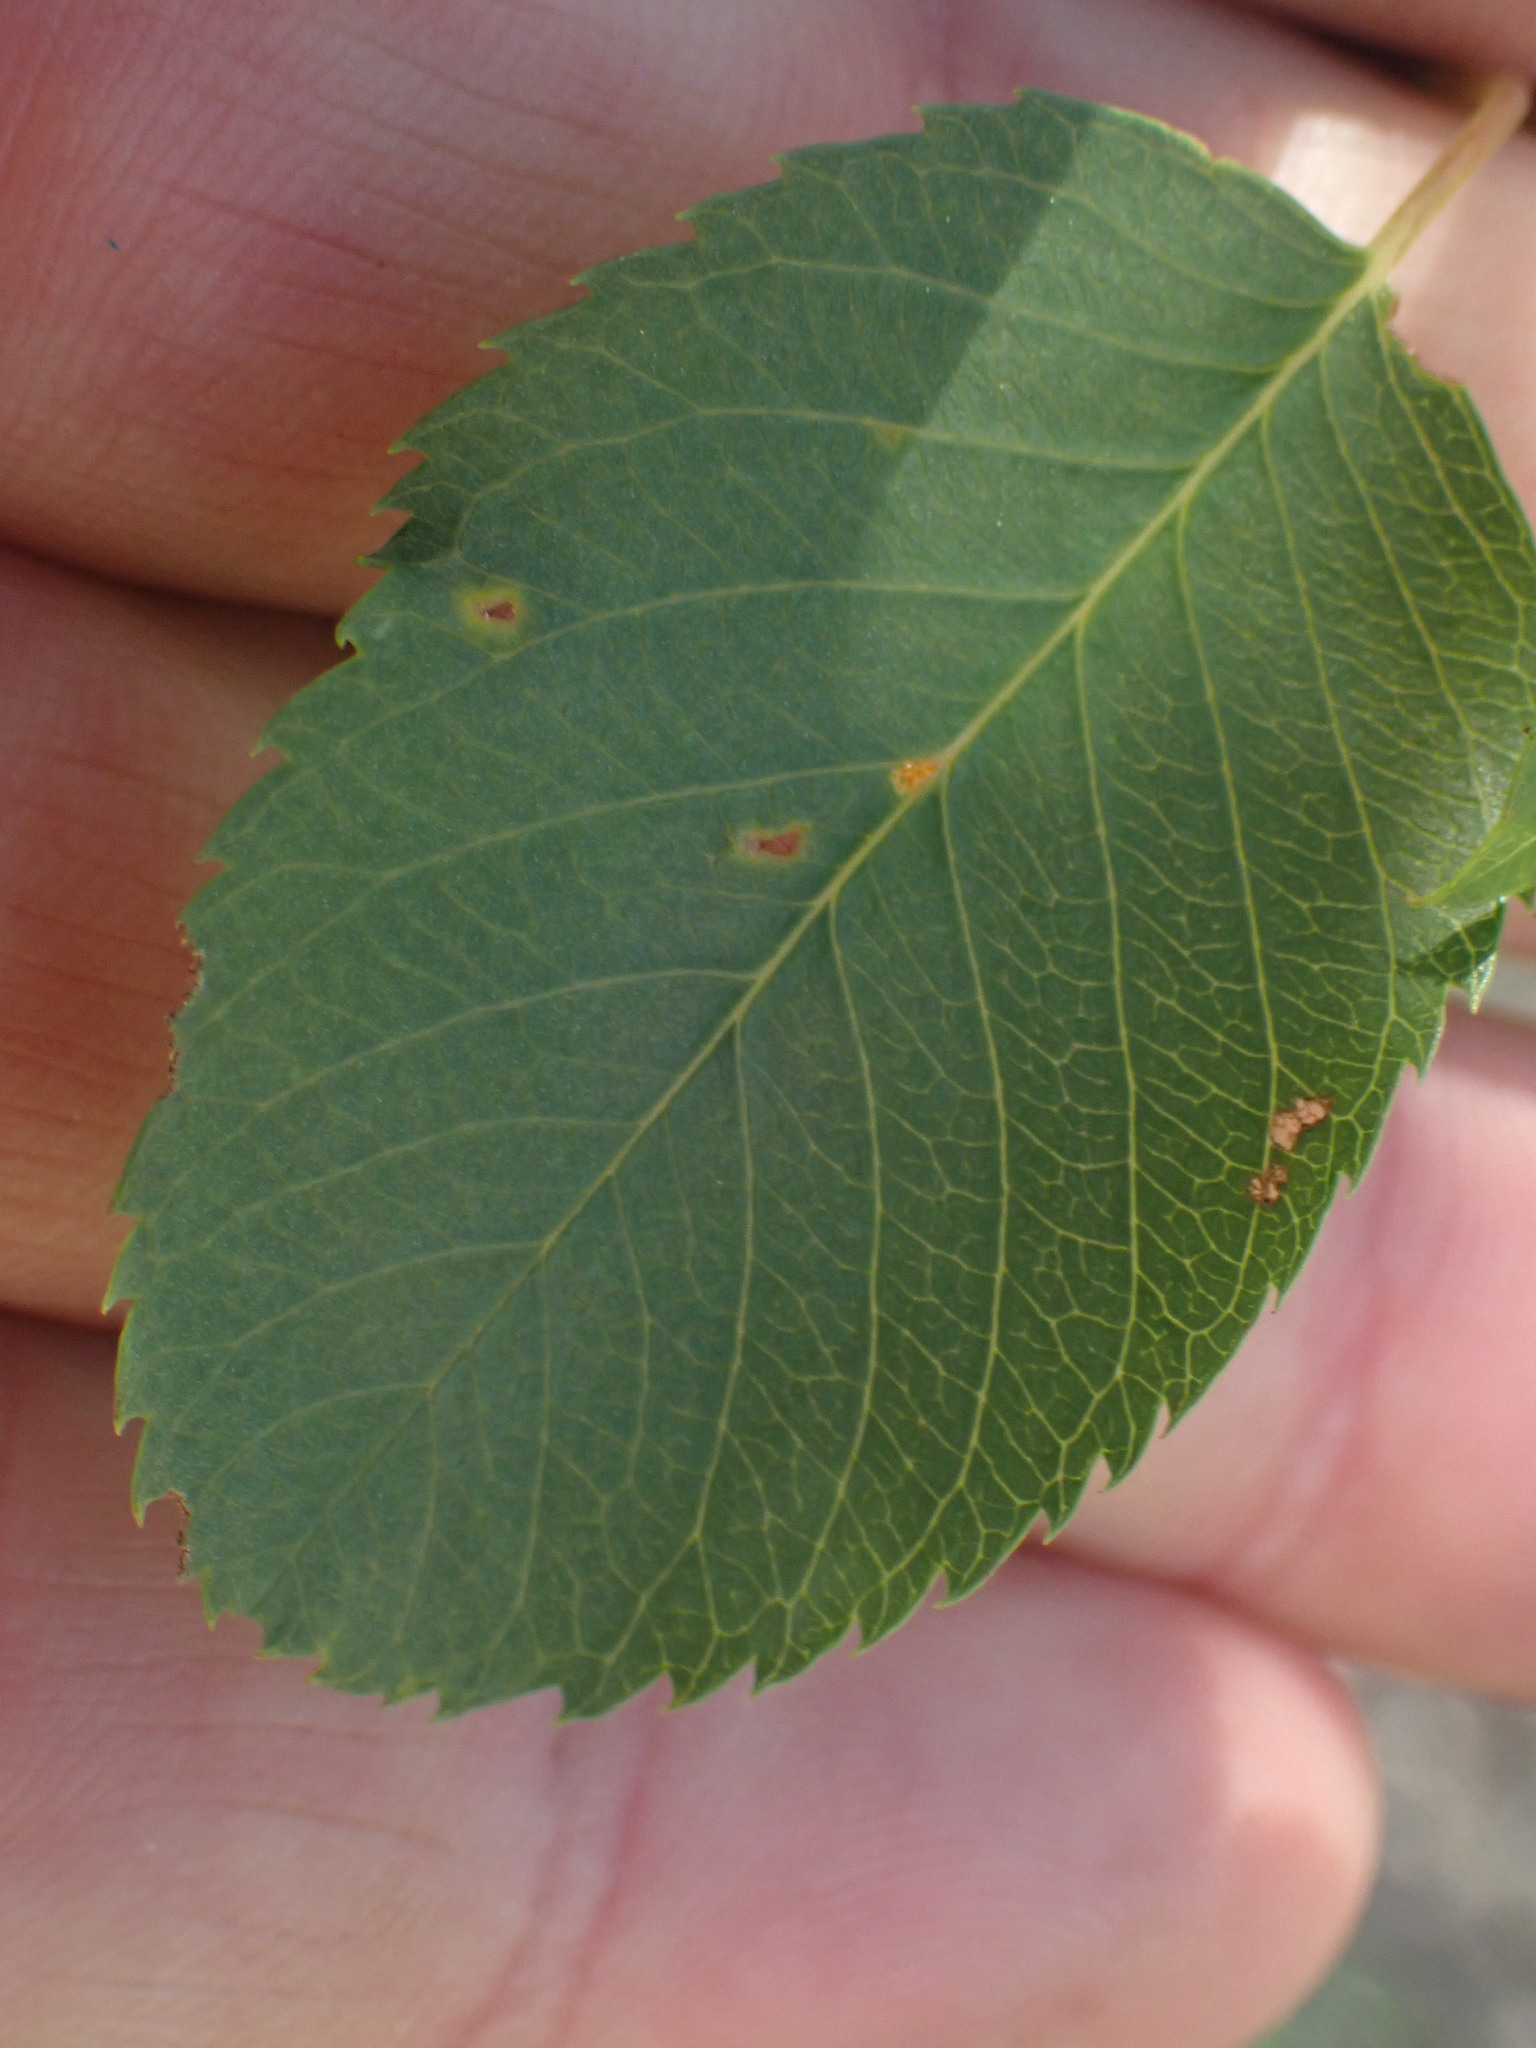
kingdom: Plantae
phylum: Tracheophyta
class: Magnoliopsida
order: Rosales
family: Rosaceae
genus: Amelanchier
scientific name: Amelanchier alnifolia
